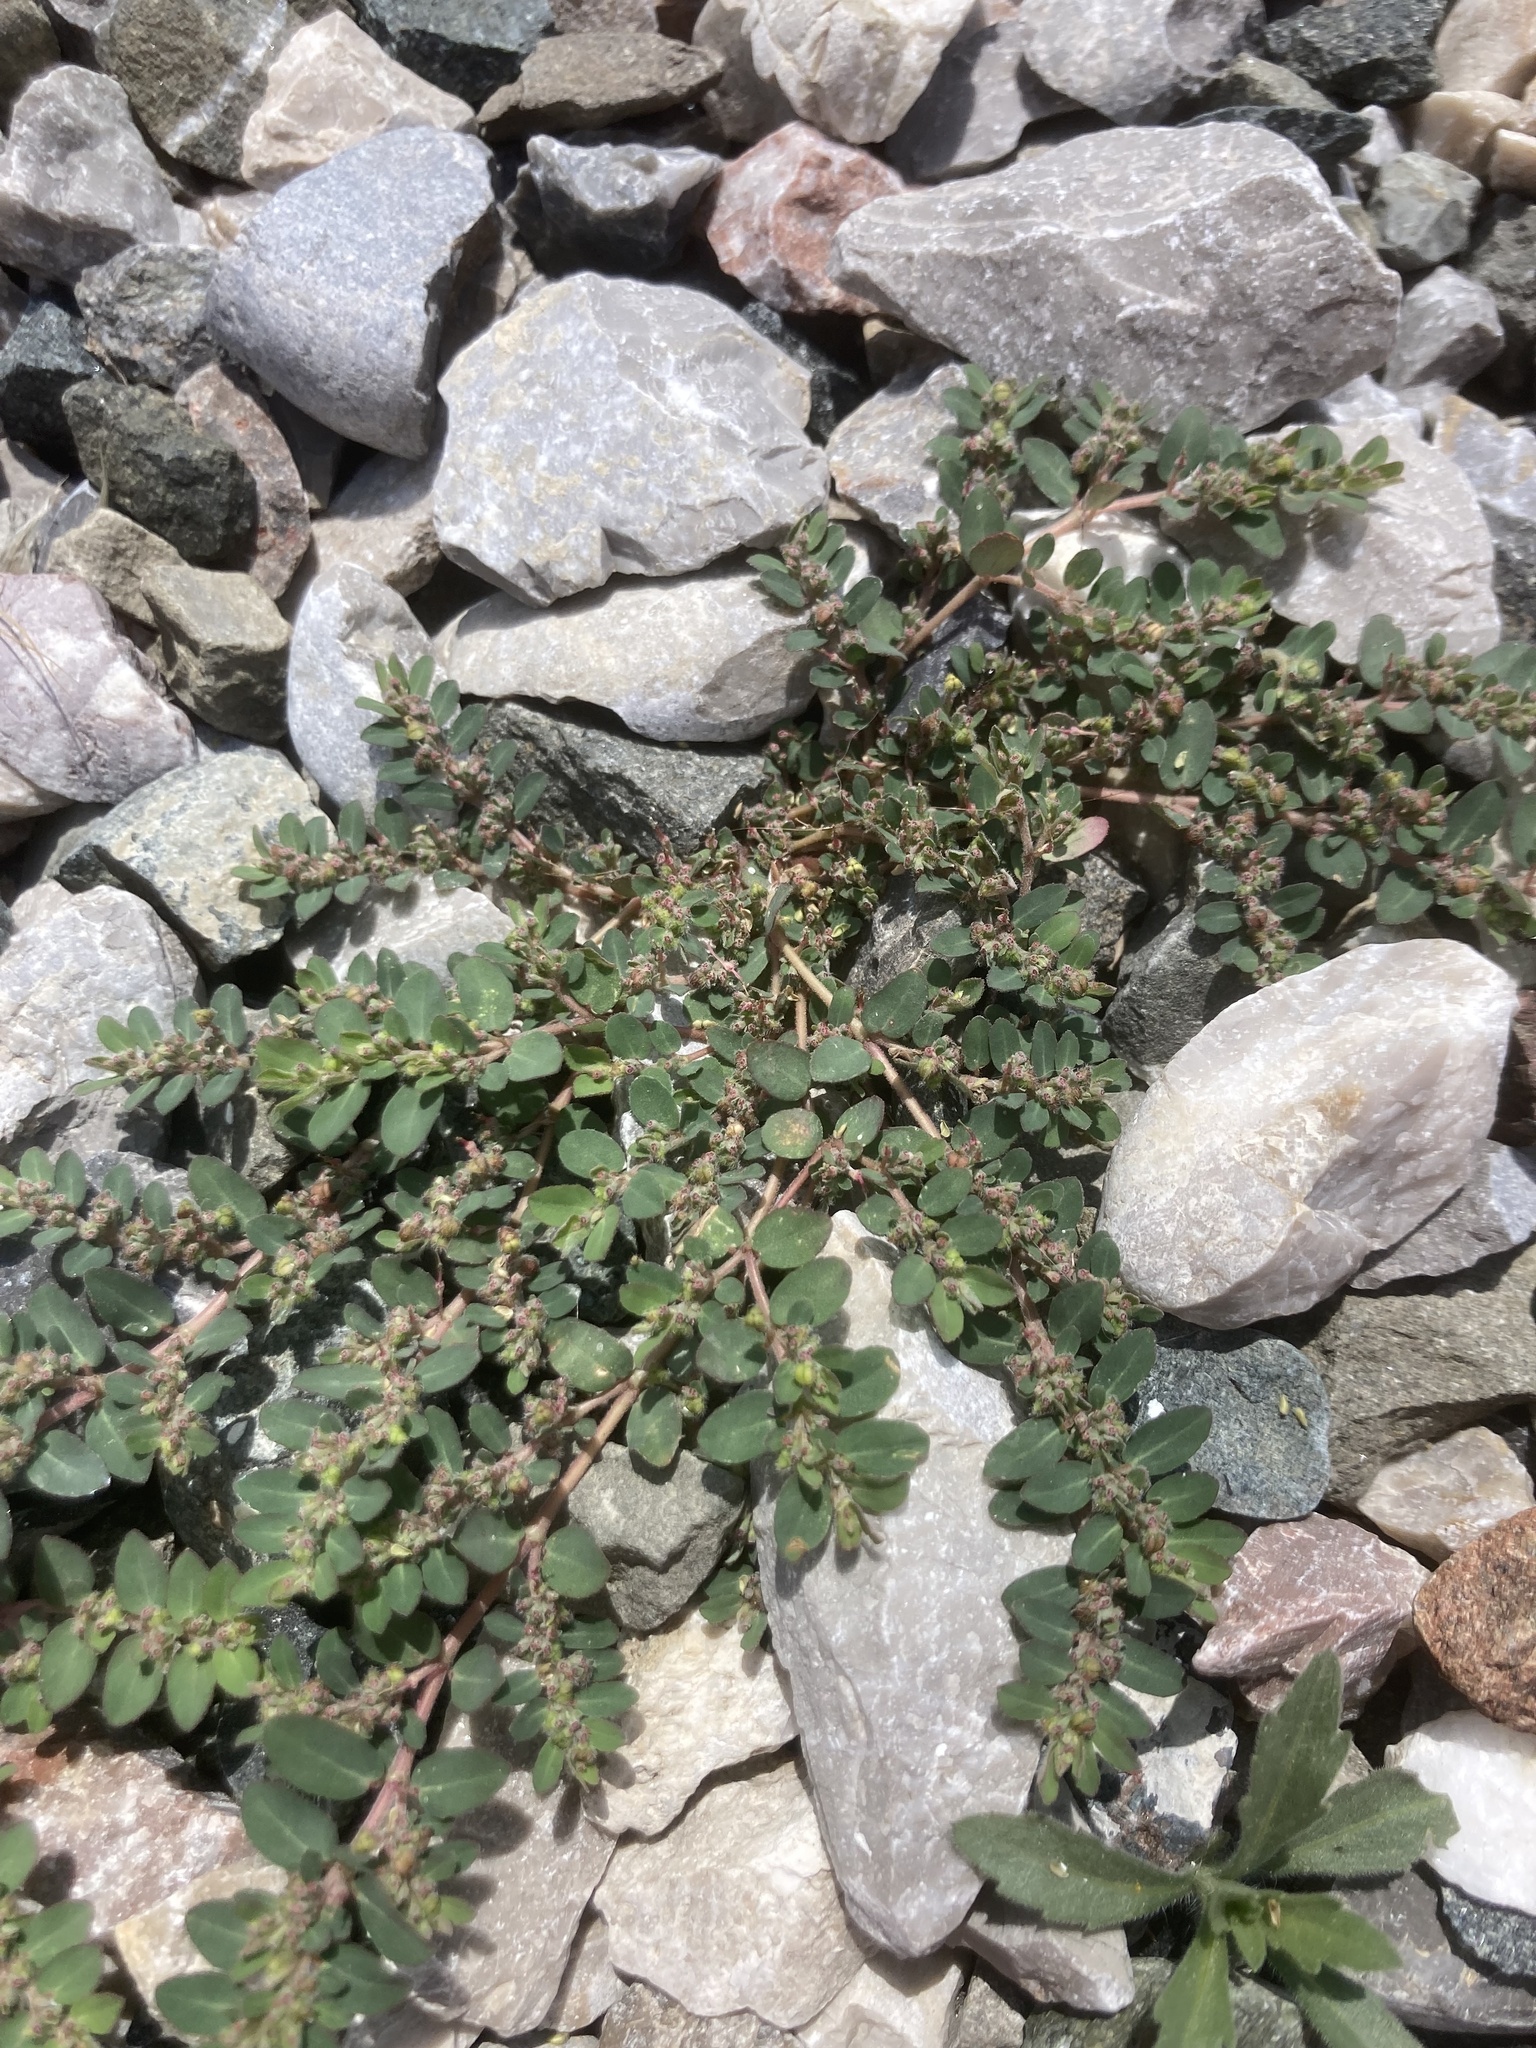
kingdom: Plantae
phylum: Tracheophyta
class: Magnoliopsida
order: Malpighiales
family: Euphorbiaceae
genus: Euphorbia
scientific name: Euphorbia prostrata
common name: Prostrate sandmat
